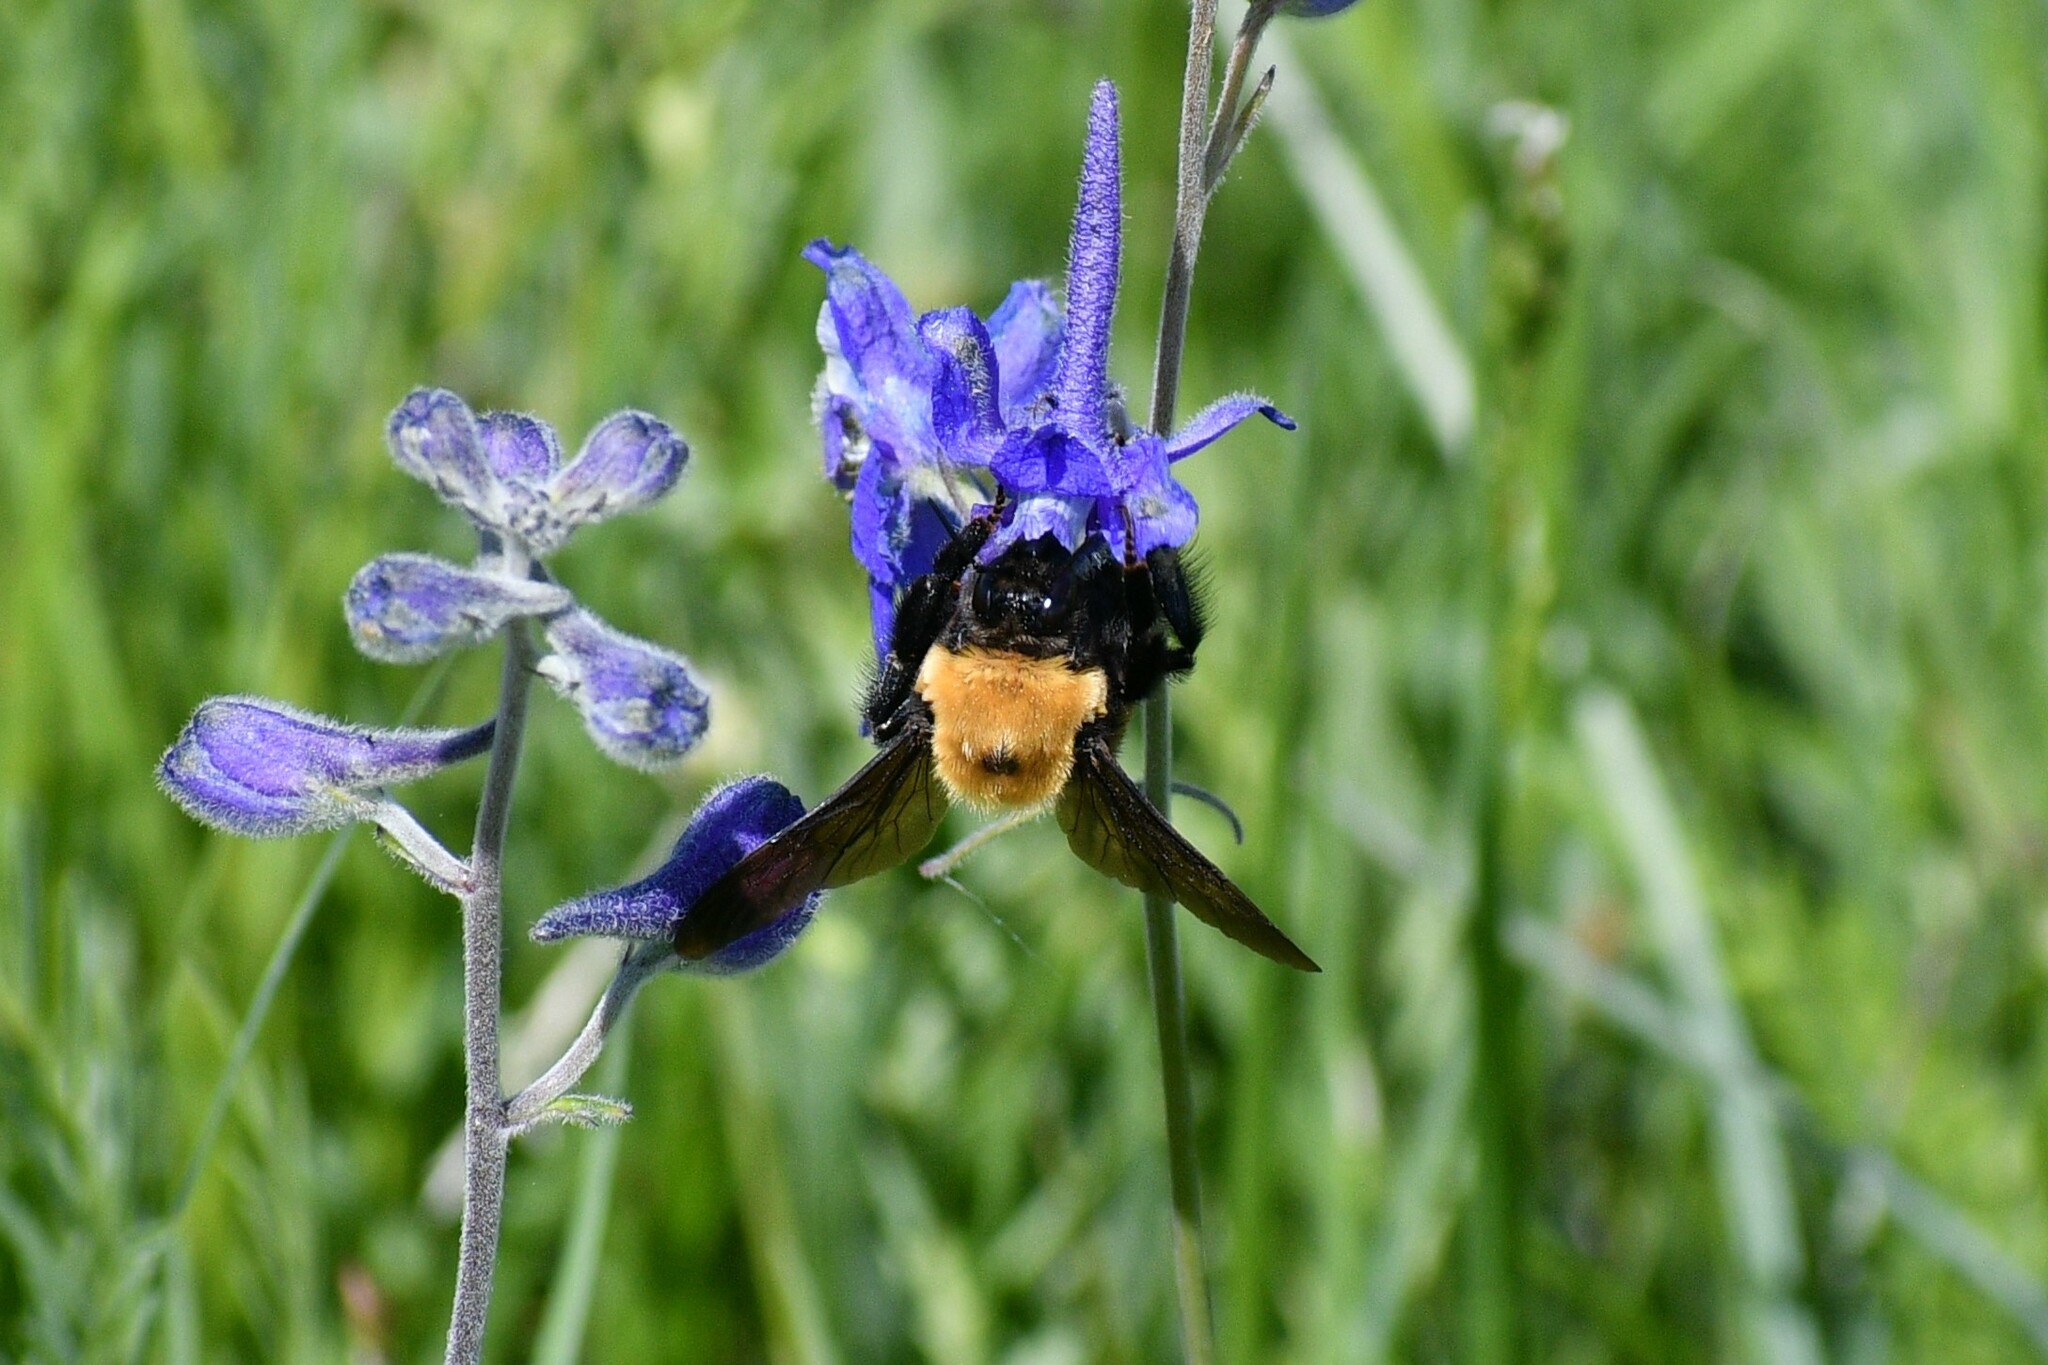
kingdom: Animalia
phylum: Arthropoda
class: Insecta
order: Hymenoptera
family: Apidae
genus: Bombus
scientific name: Bombus nevadensis
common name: Nevada bumble bee
